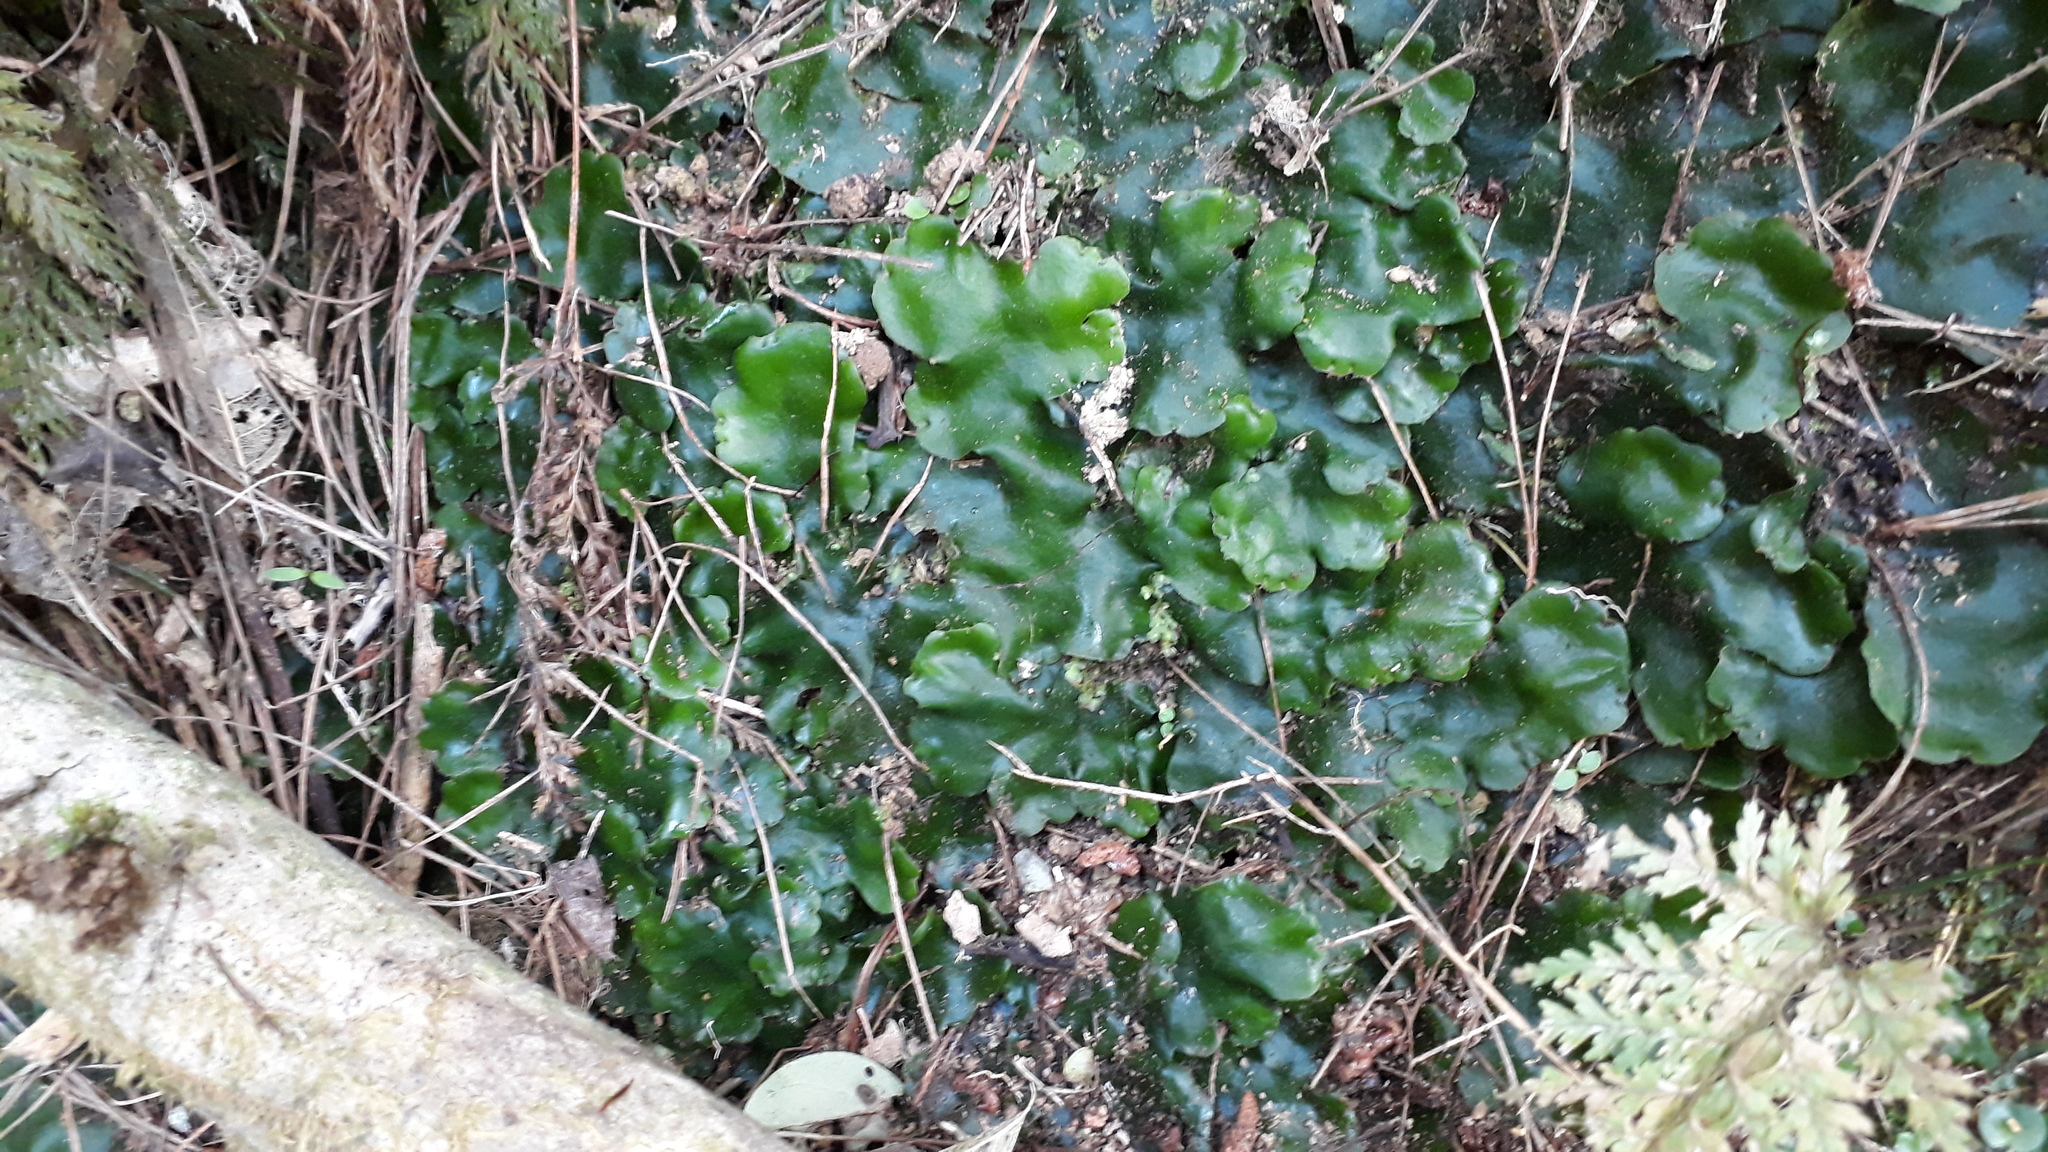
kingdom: Plantae
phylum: Marchantiophyta
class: Marchantiopsida
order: Marchantiales
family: Monocleaceae
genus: Monoclea
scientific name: Monoclea forsteri
